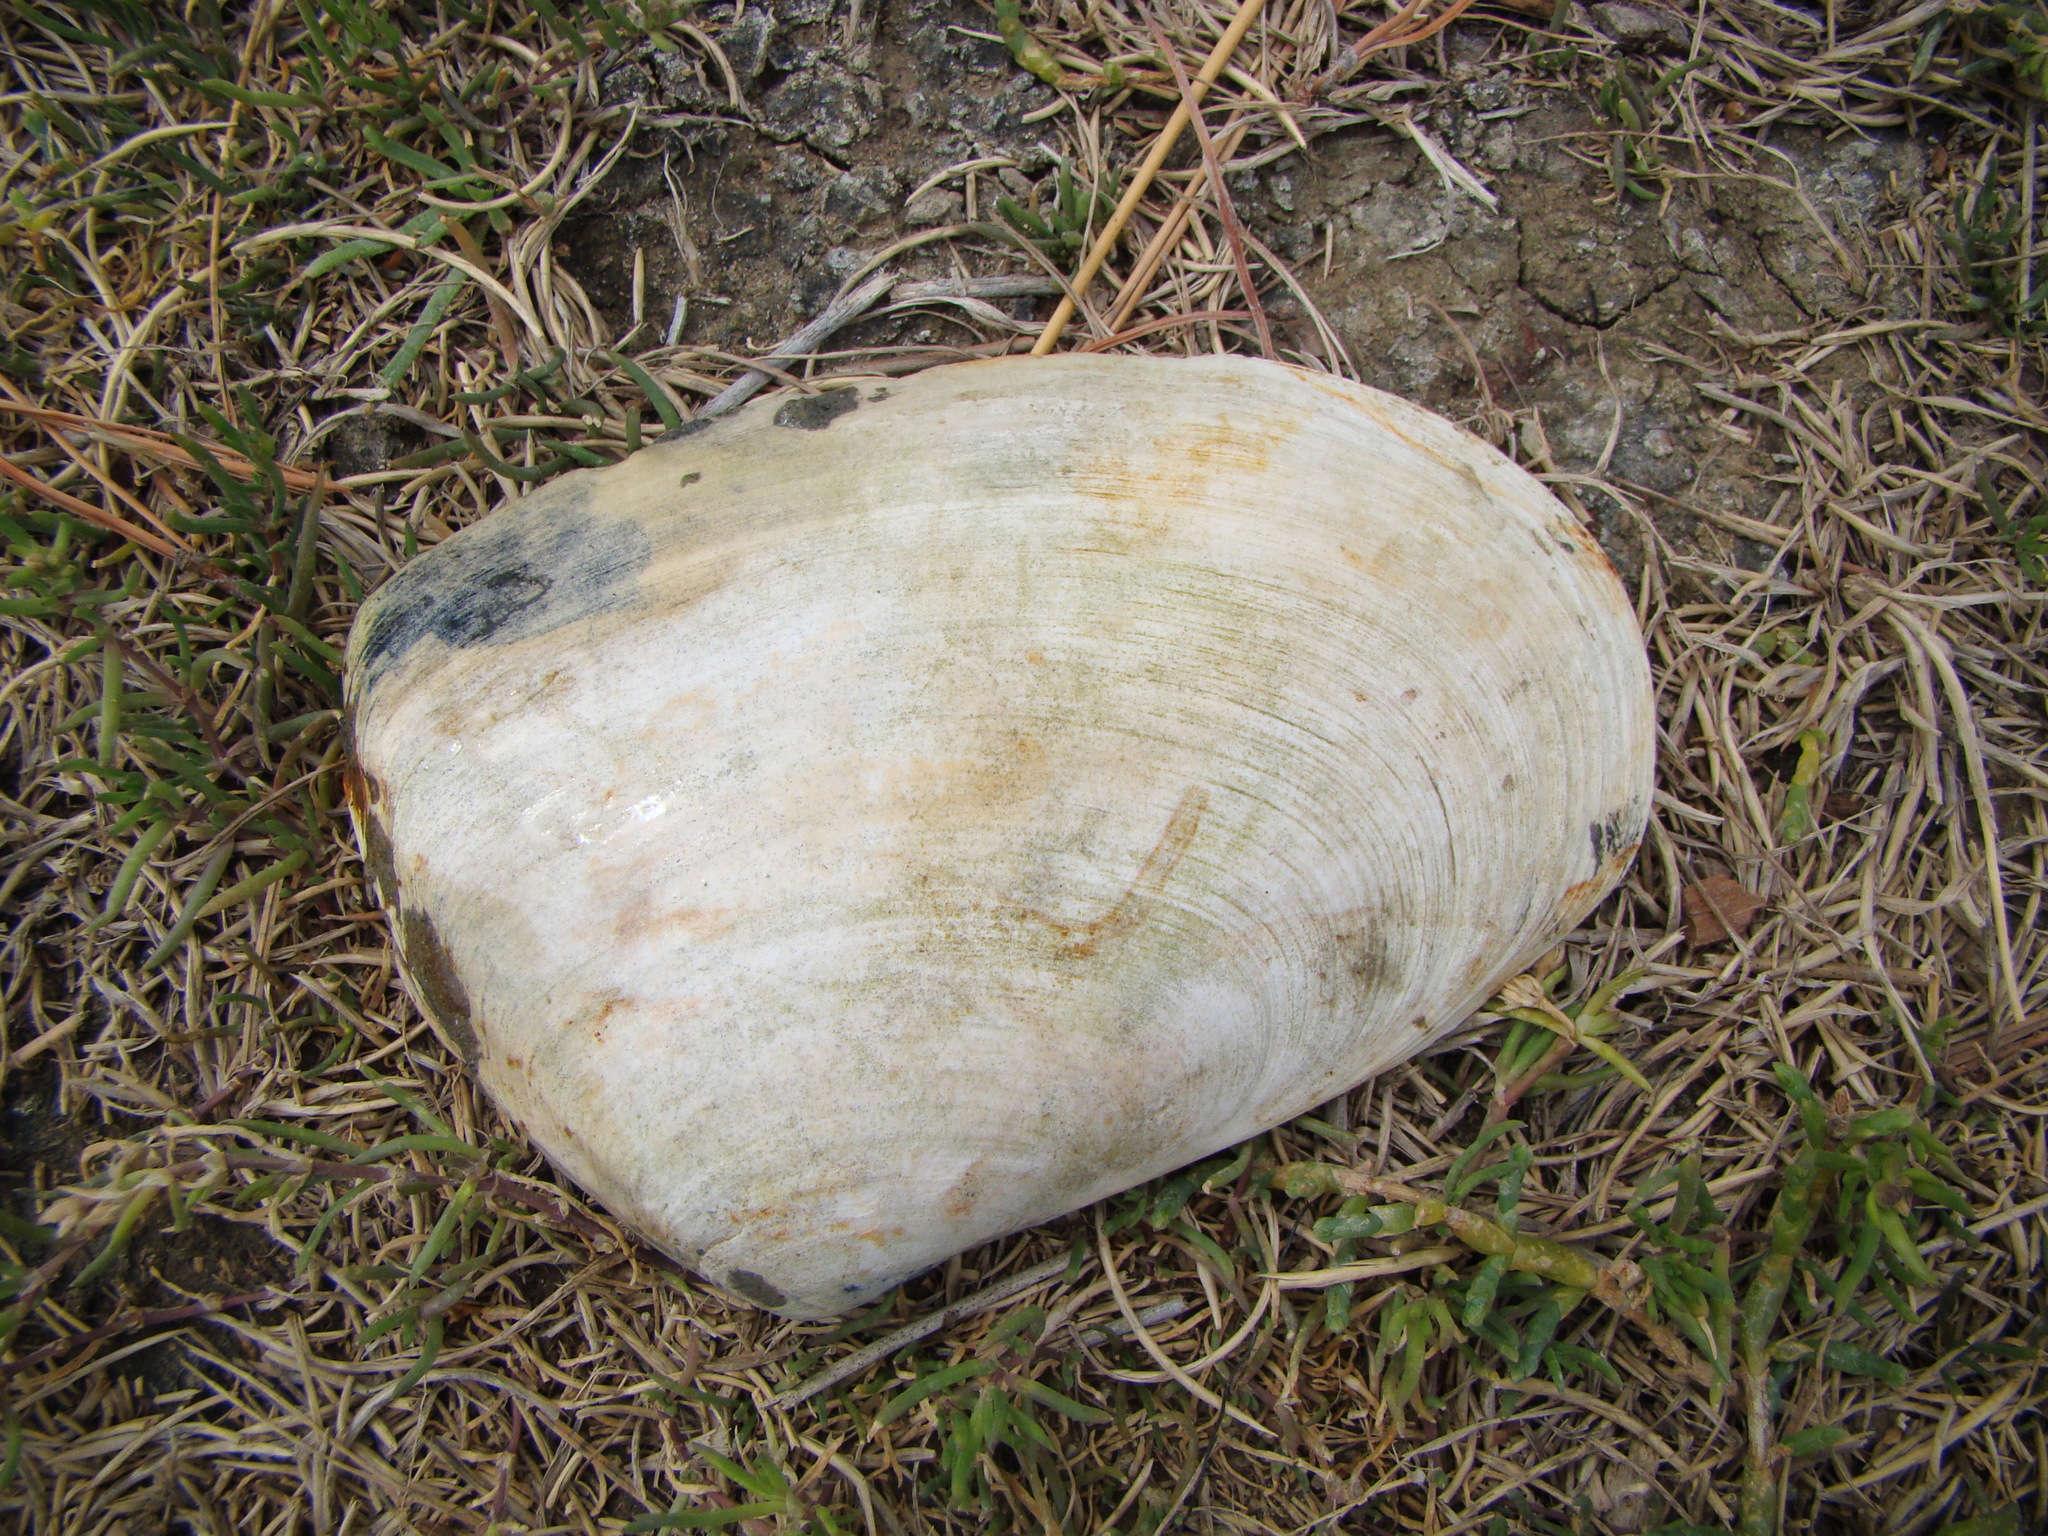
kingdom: Animalia
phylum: Mollusca
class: Bivalvia
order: Venerida
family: Mesodesmatidae
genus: Paphies
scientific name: Paphies ventricosa
